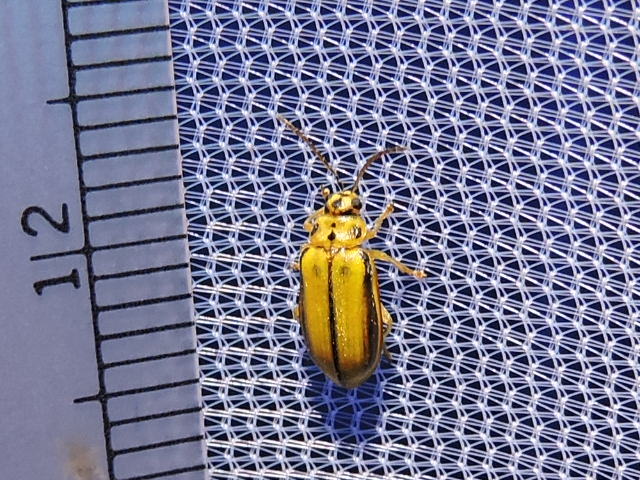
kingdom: Animalia
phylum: Arthropoda
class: Insecta
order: Coleoptera
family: Chrysomelidae
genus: Xanthogaleruca
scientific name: Xanthogaleruca luteola
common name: Elm leaf beetle
